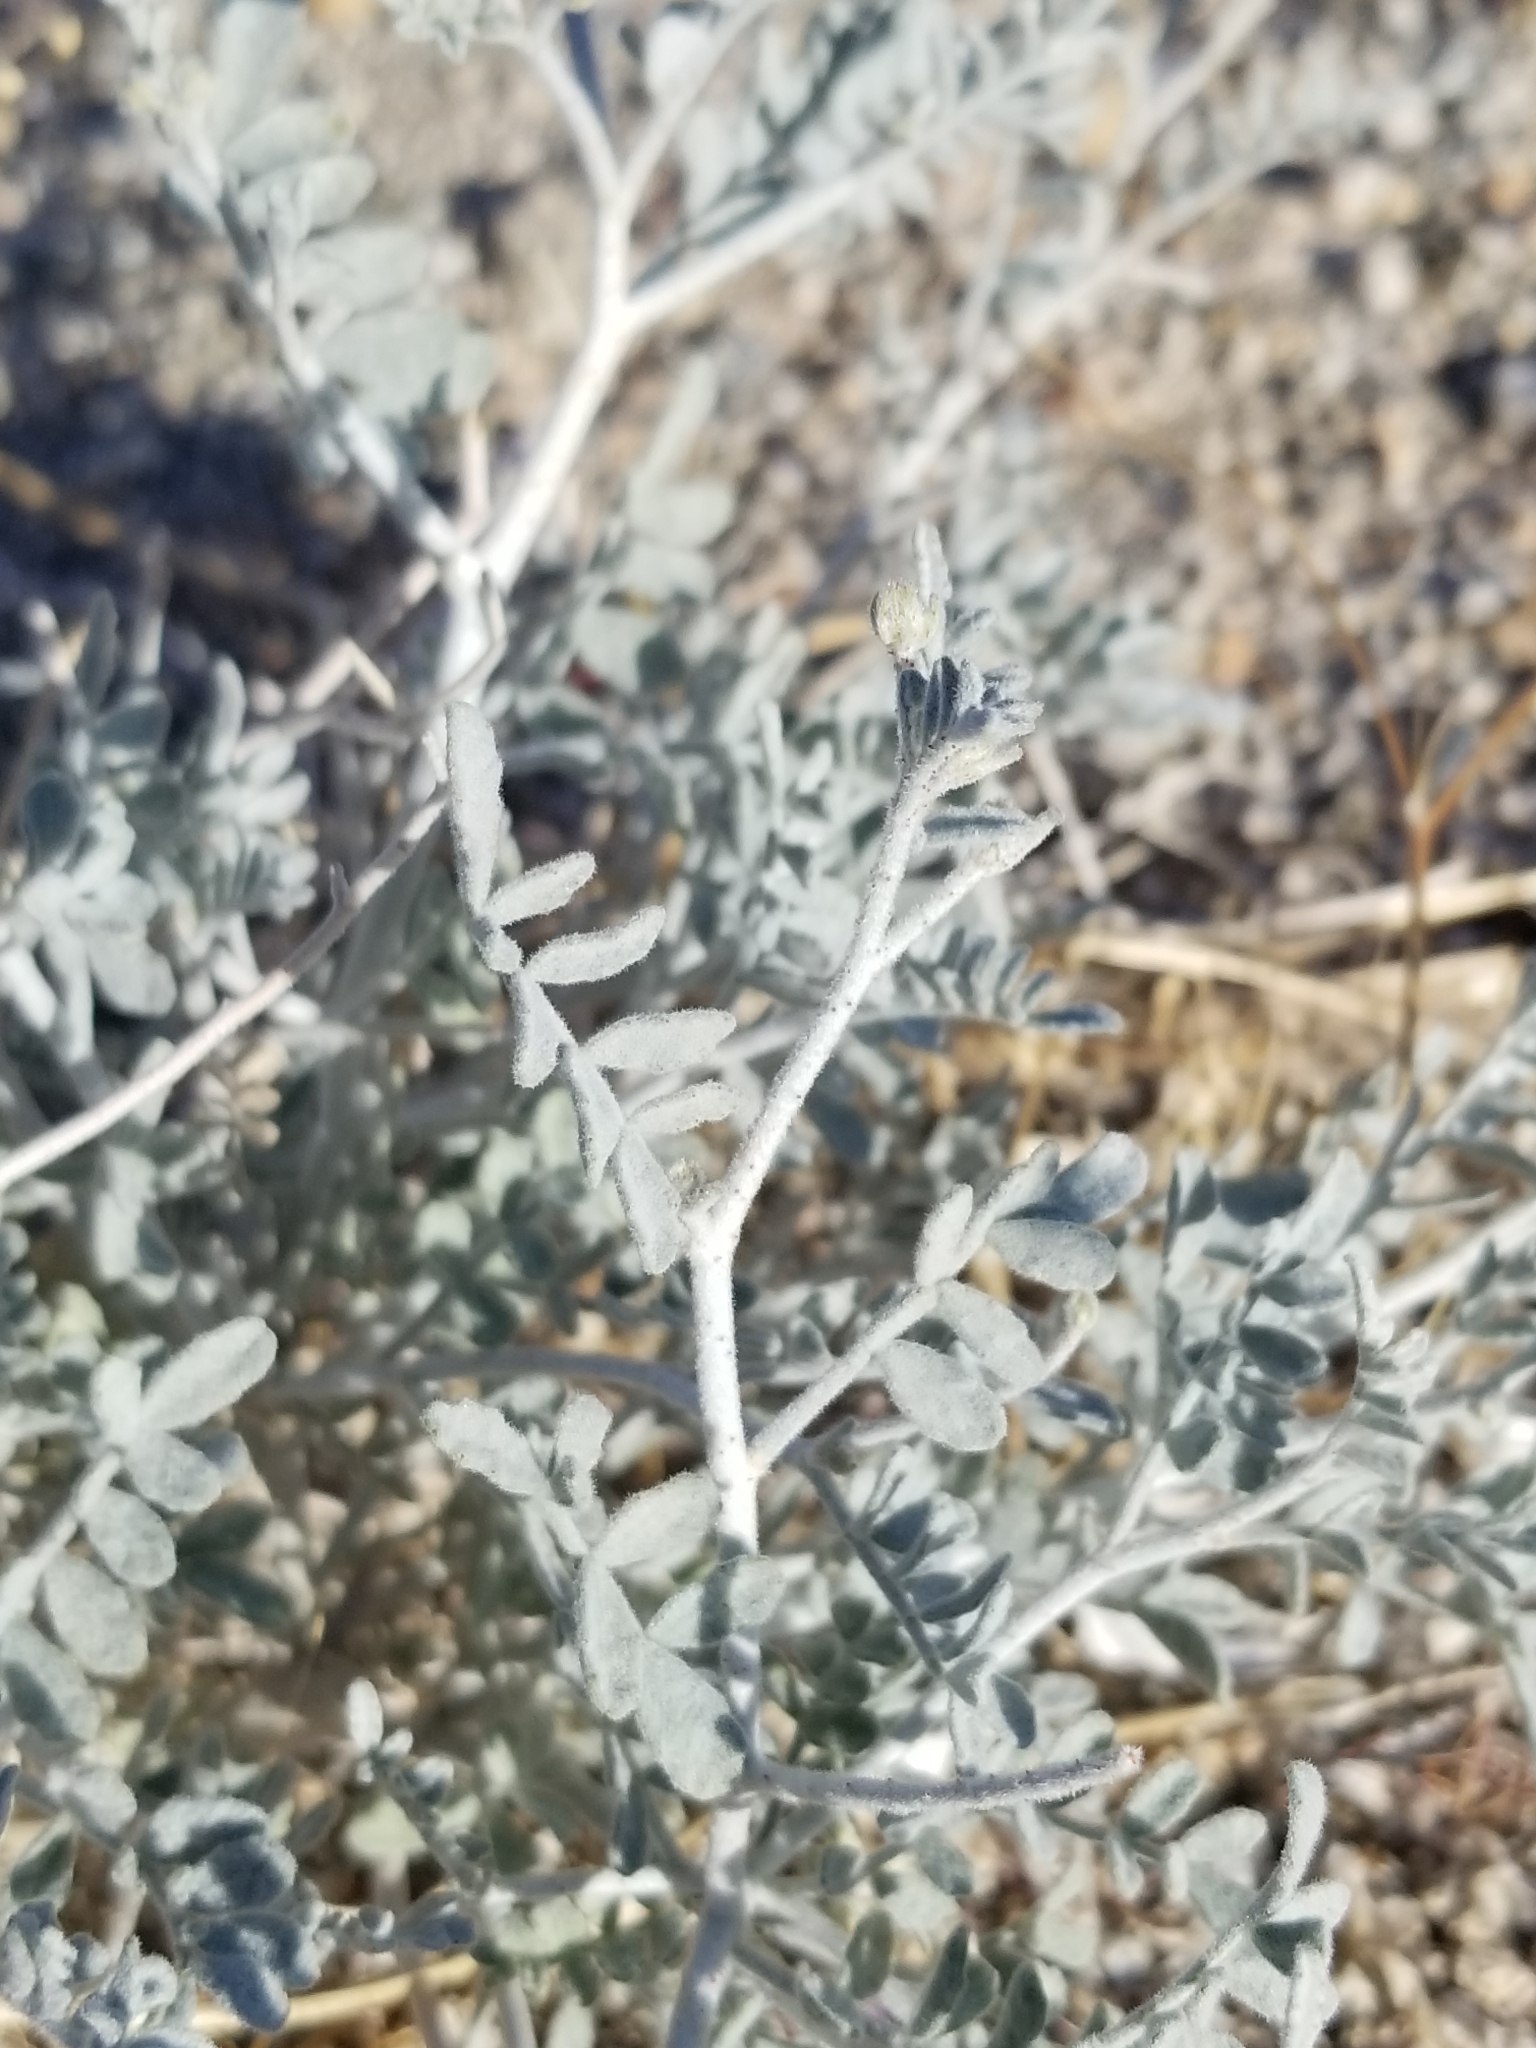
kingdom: Plantae
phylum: Tracheophyta
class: Magnoliopsida
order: Fabales
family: Fabaceae
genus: Psorothamnus
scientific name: Psorothamnus emoryi
